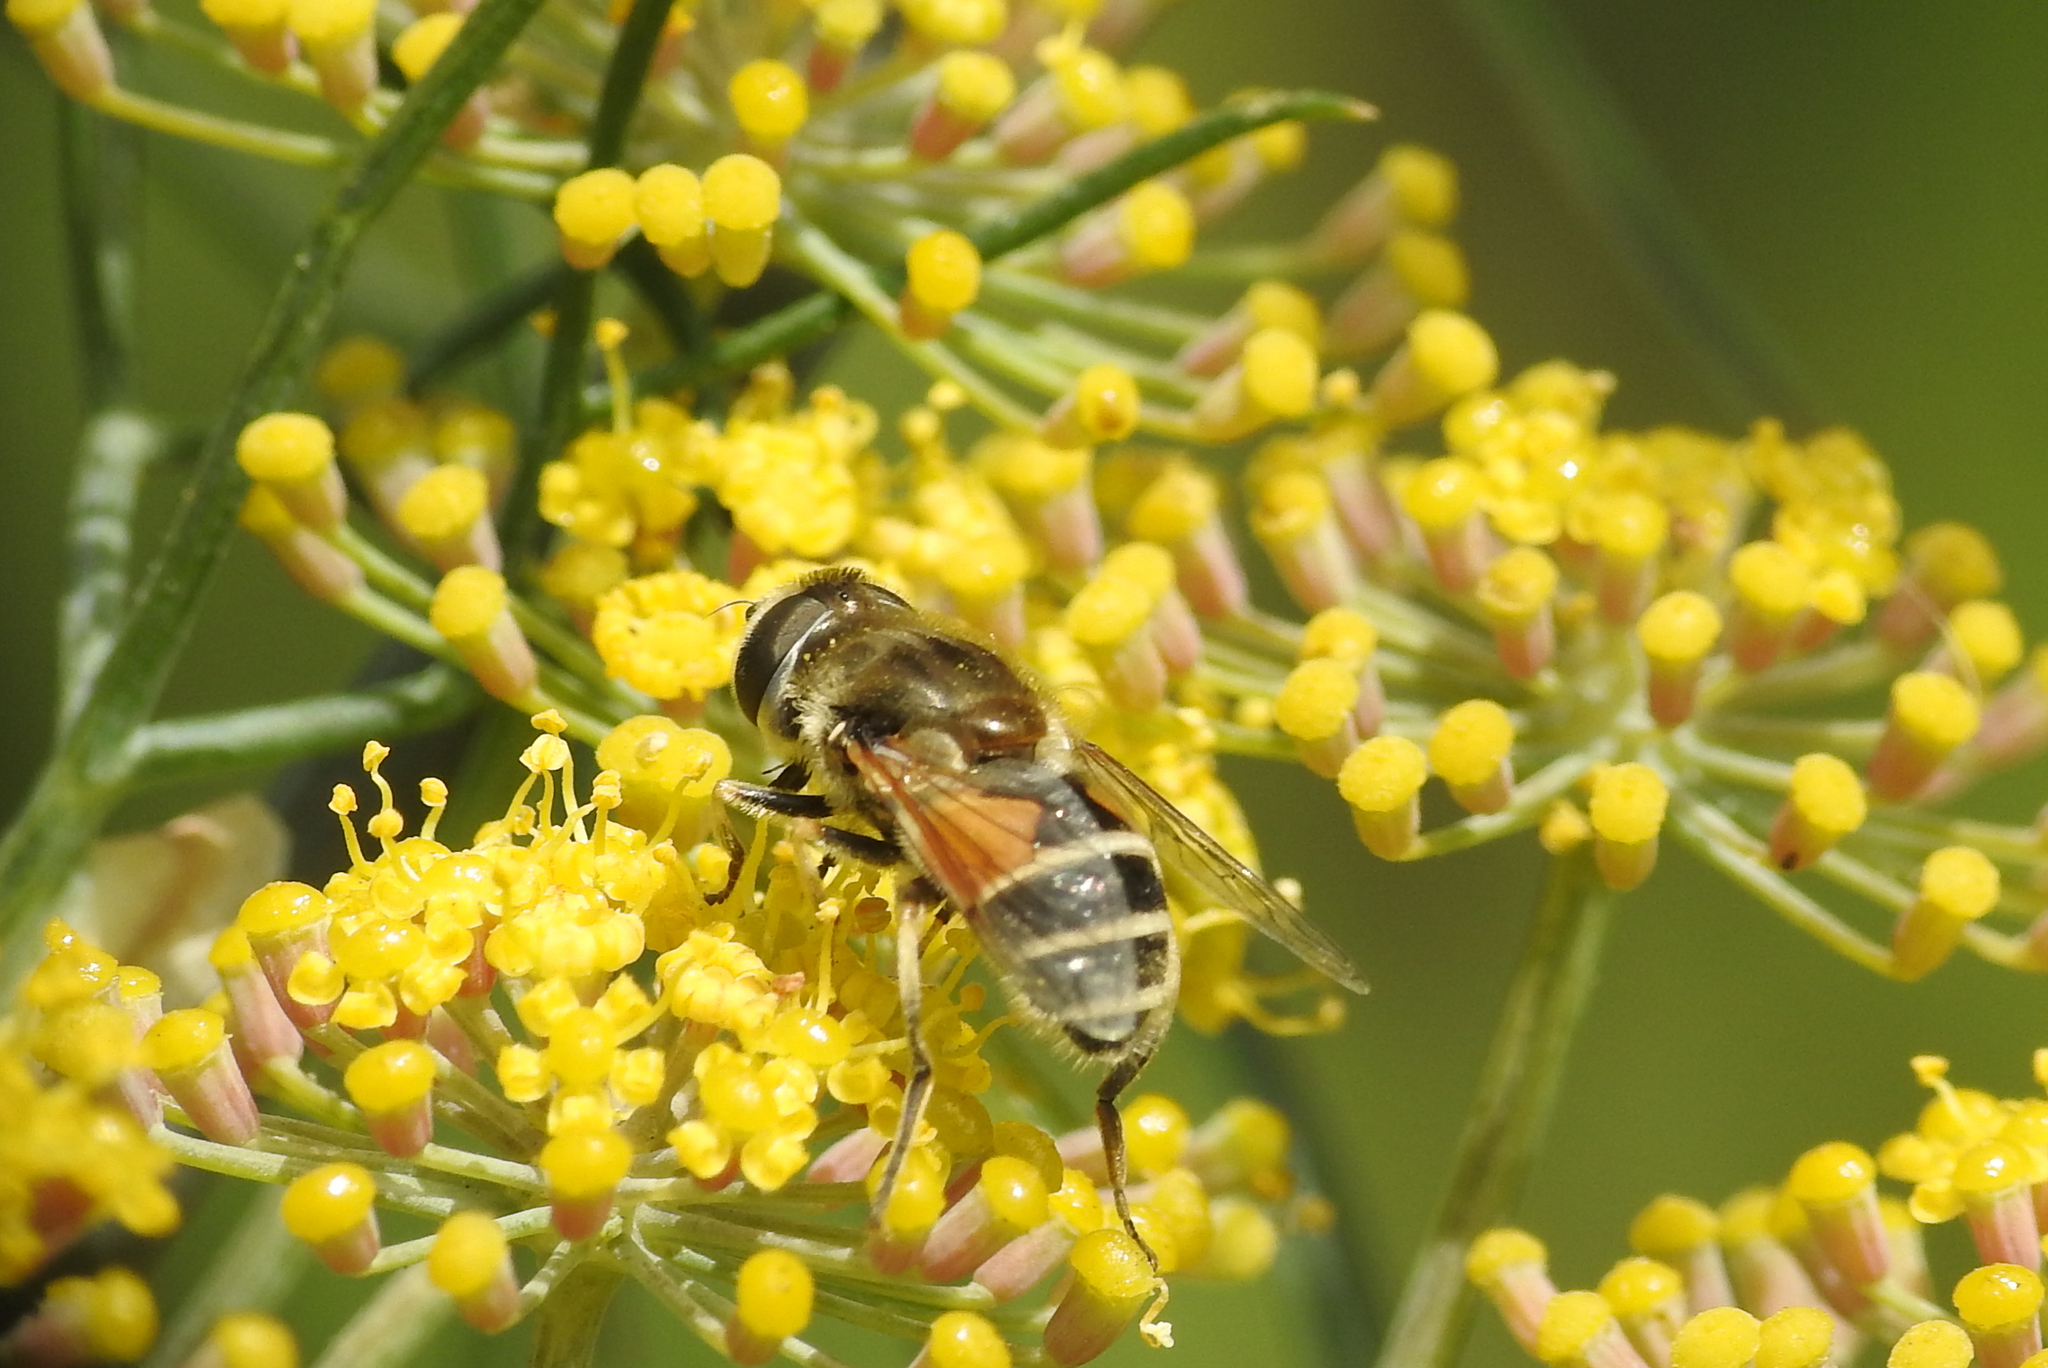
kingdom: Animalia
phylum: Arthropoda
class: Insecta
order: Diptera
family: Syrphidae
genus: Eristalis
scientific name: Eristalis arbustorum
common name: Hover fly
